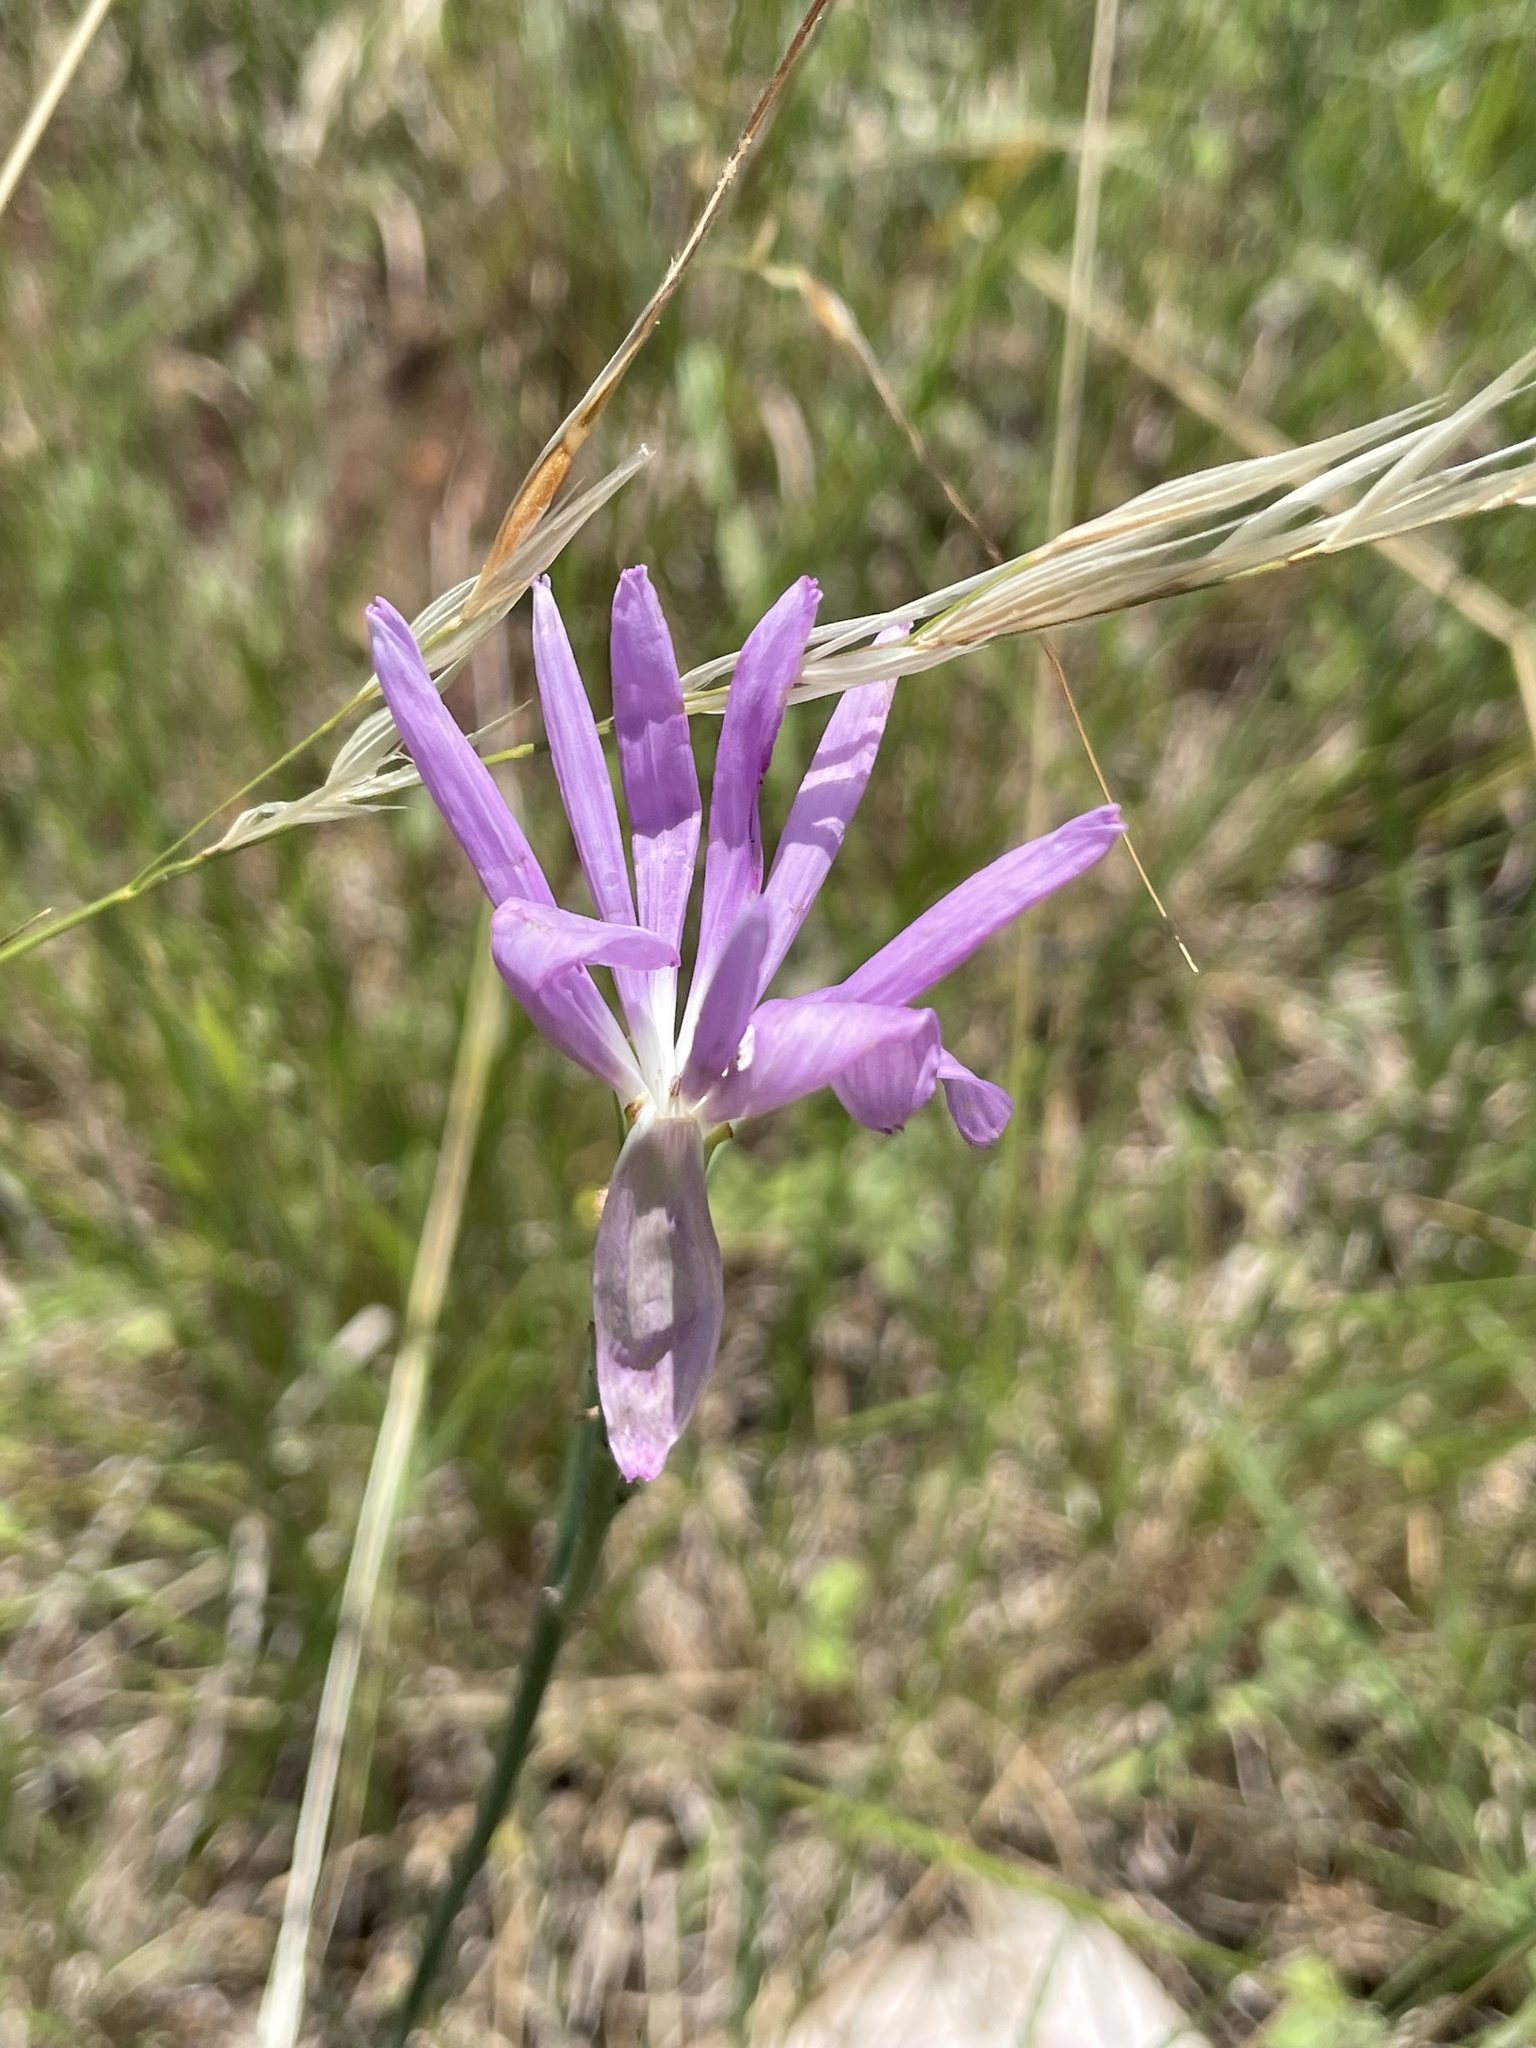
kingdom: Plantae
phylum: Tracheophyta
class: Magnoliopsida
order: Asterales
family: Asteraceae
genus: Lygodesmia
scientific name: Lygodesmia texana
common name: Texas skeleton-plant
